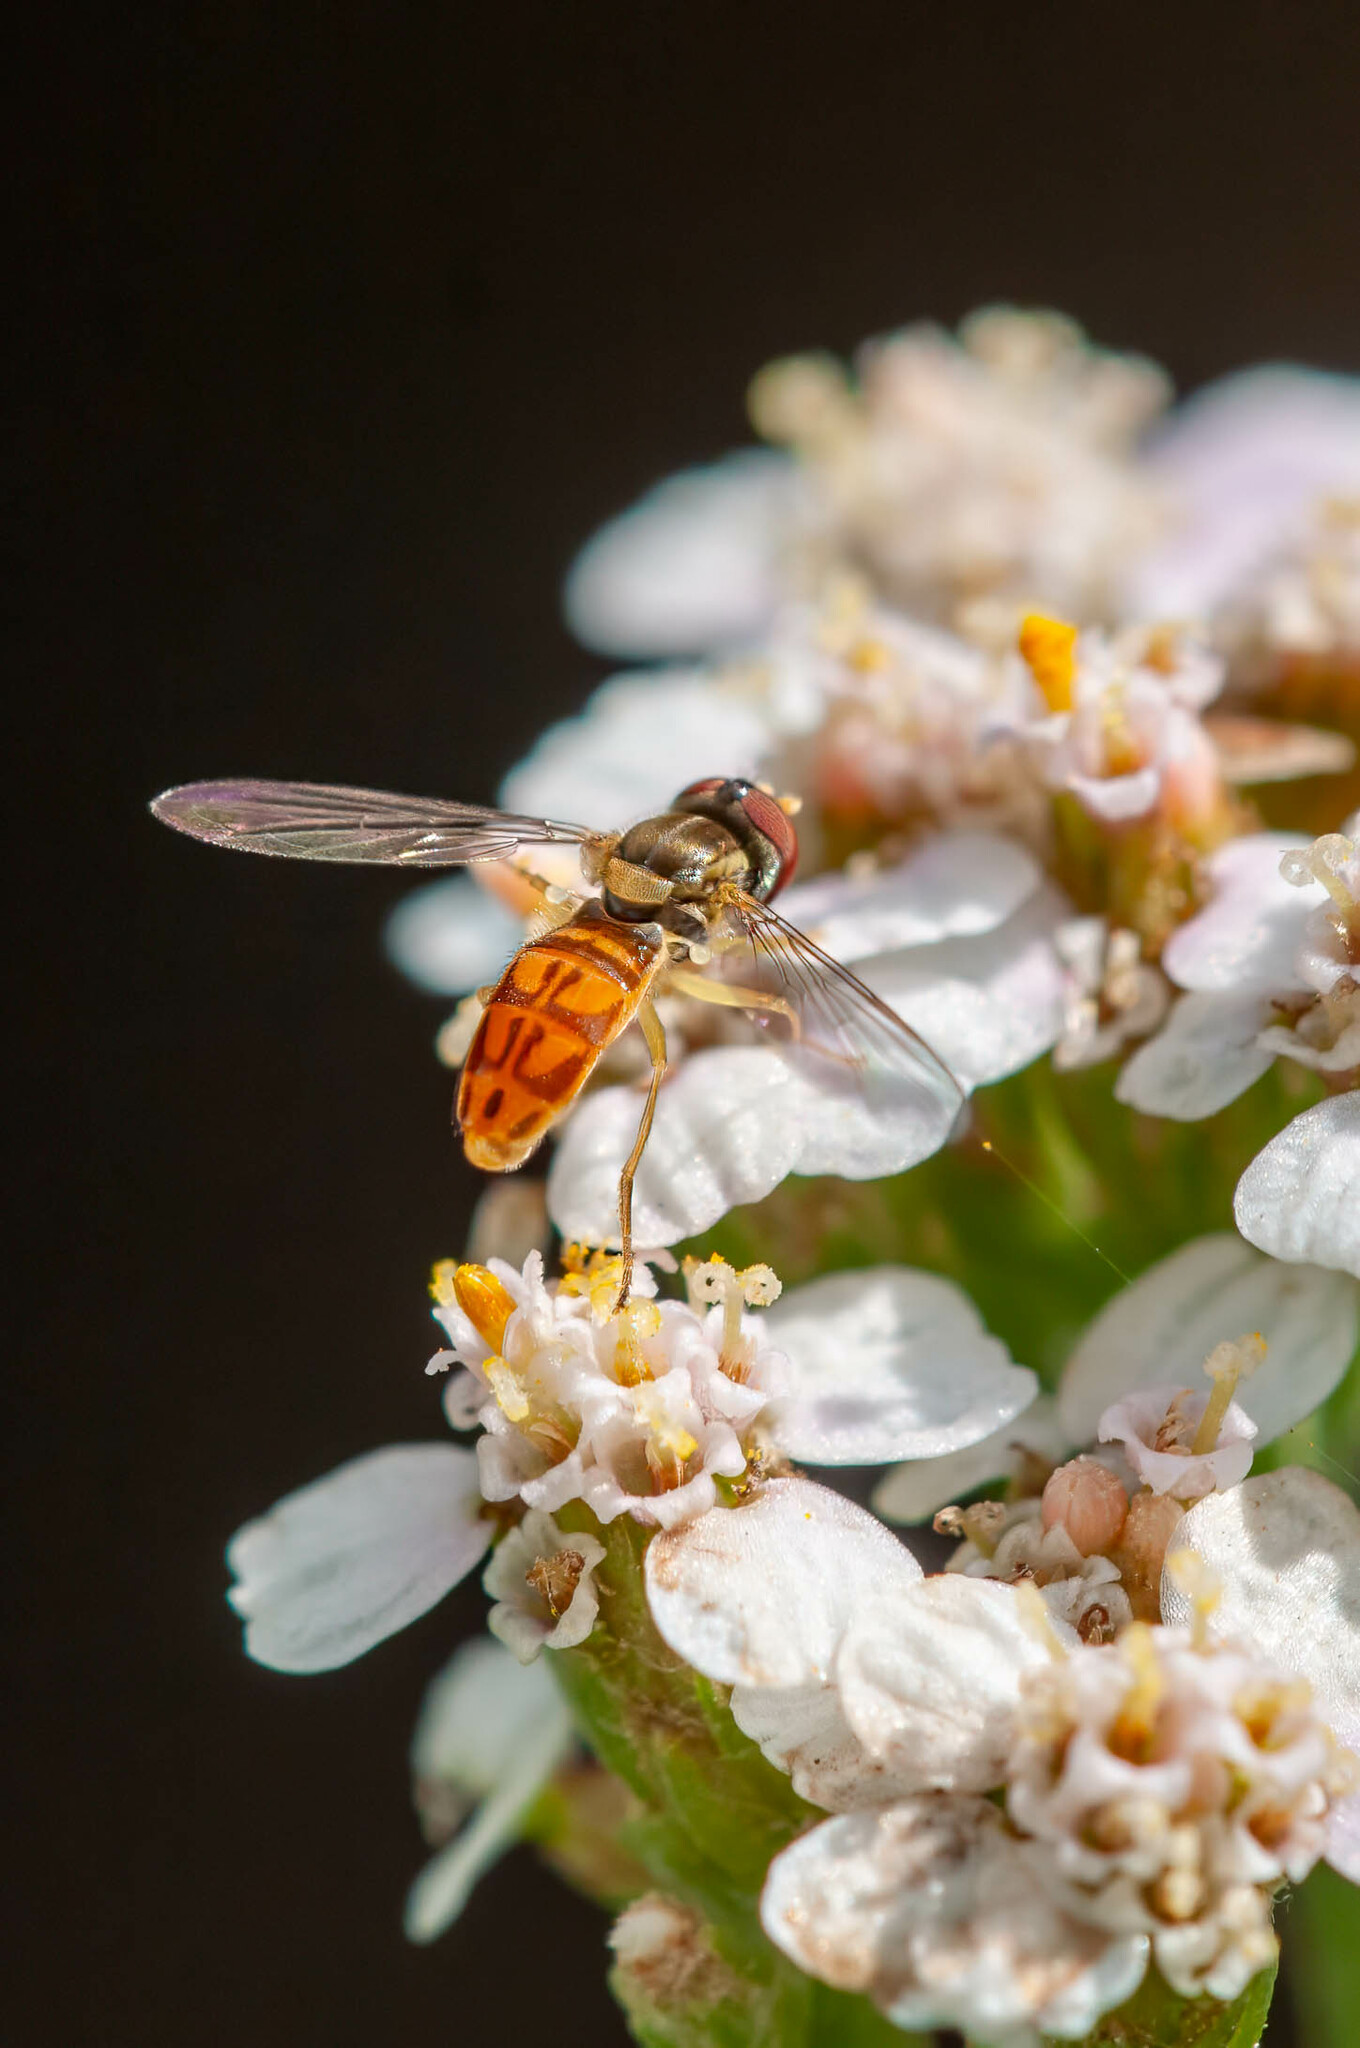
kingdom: Animalia
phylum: Arthropoda
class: Insecta
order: Diptera
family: Syrphidae
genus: Toxomerus
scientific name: Toxomerus marginatus
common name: Syrphid fly
